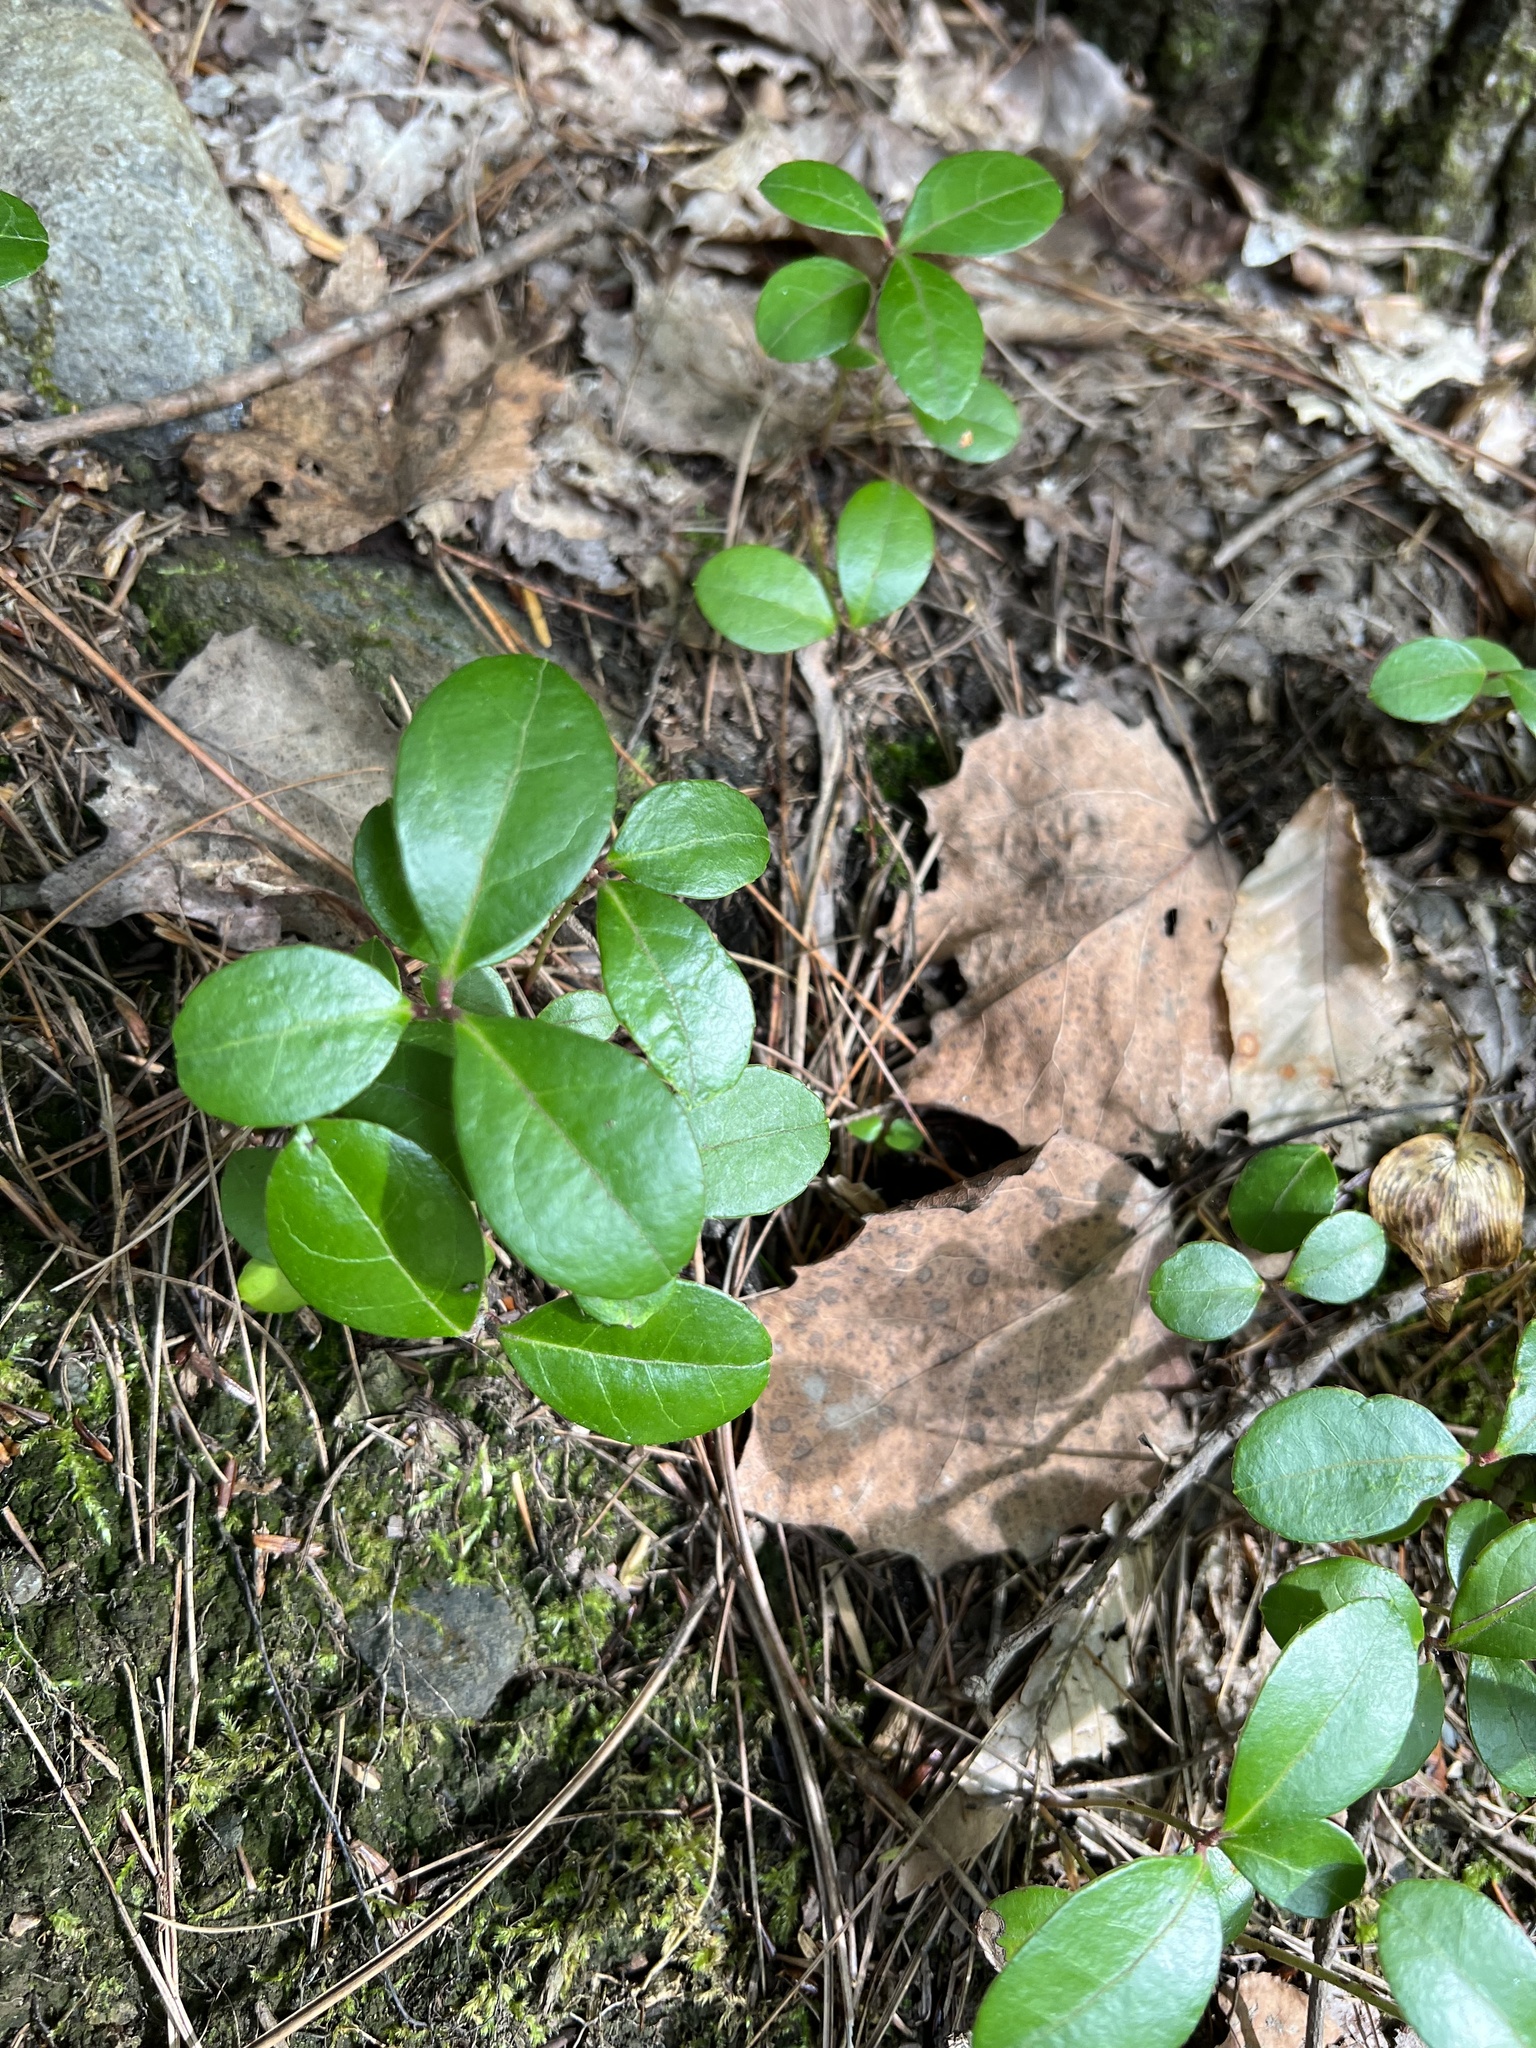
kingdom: Plantae
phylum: Tracheophyta
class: Magnoliopsida
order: Ericales
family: Ericaceae
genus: Gaultheria
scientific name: Gaultheria procumbens
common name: Checkerberry
